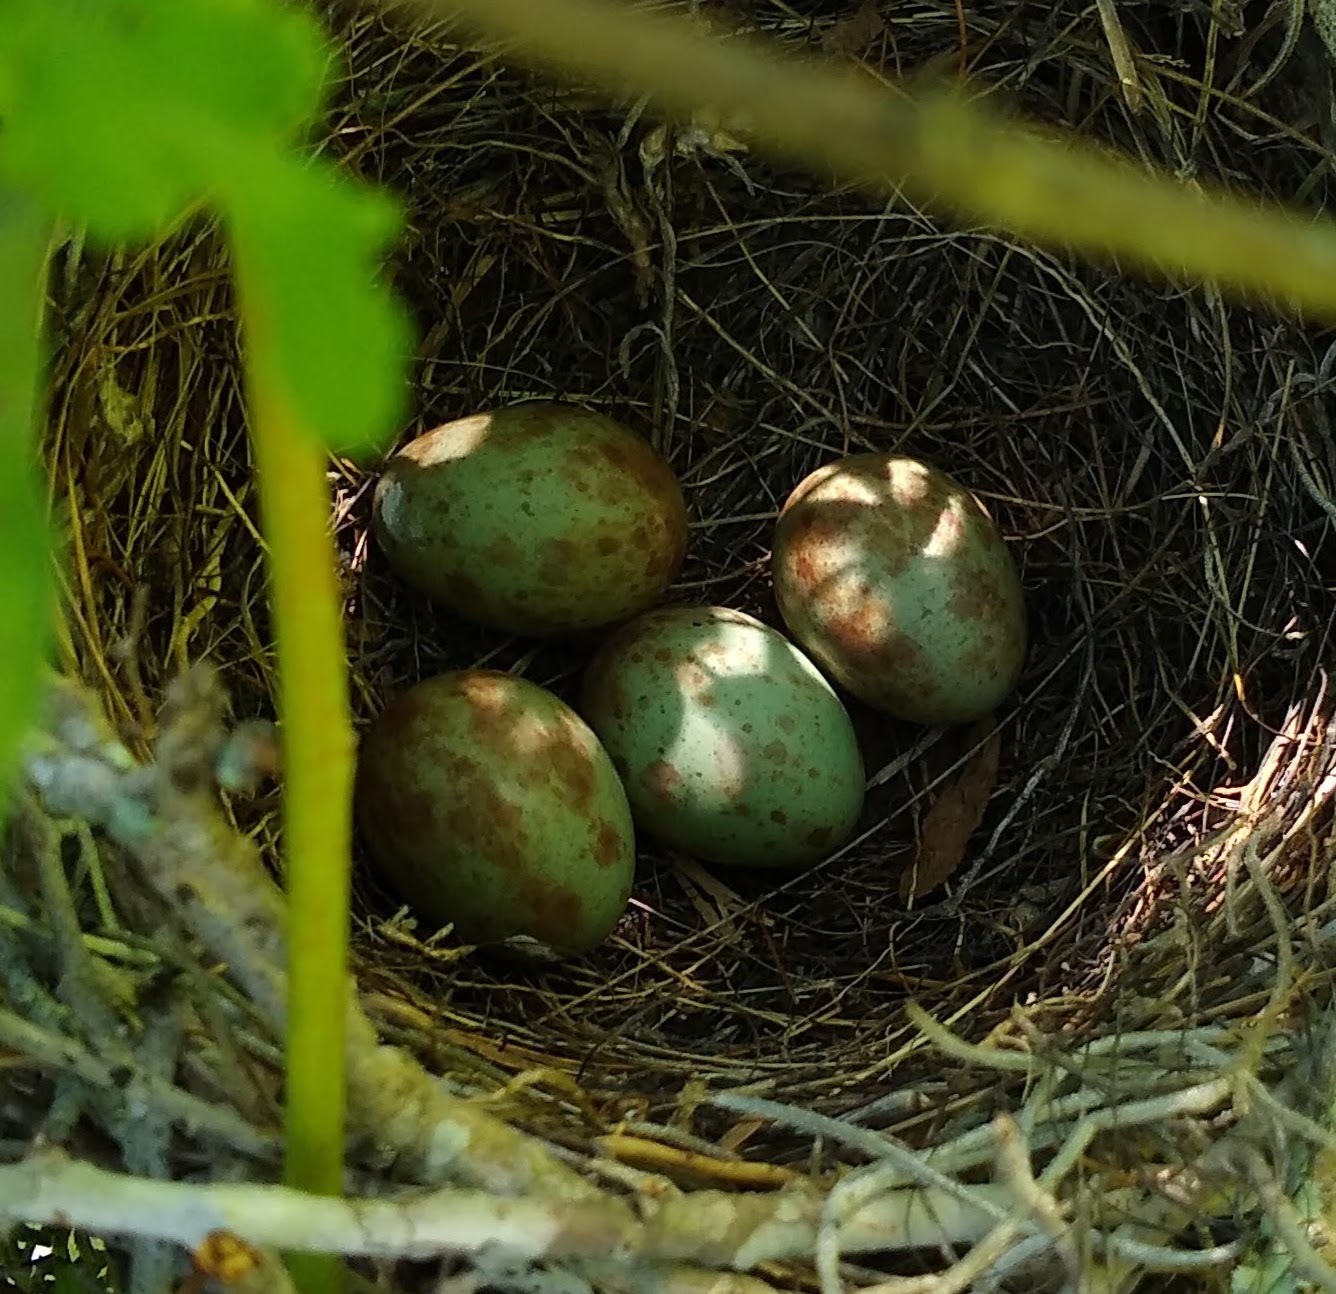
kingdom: Animalia
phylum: Chordata
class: Aves
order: Passeriformes
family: Mimidae
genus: Mimus
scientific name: Mimus polyglottos
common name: Northern mockingbird
